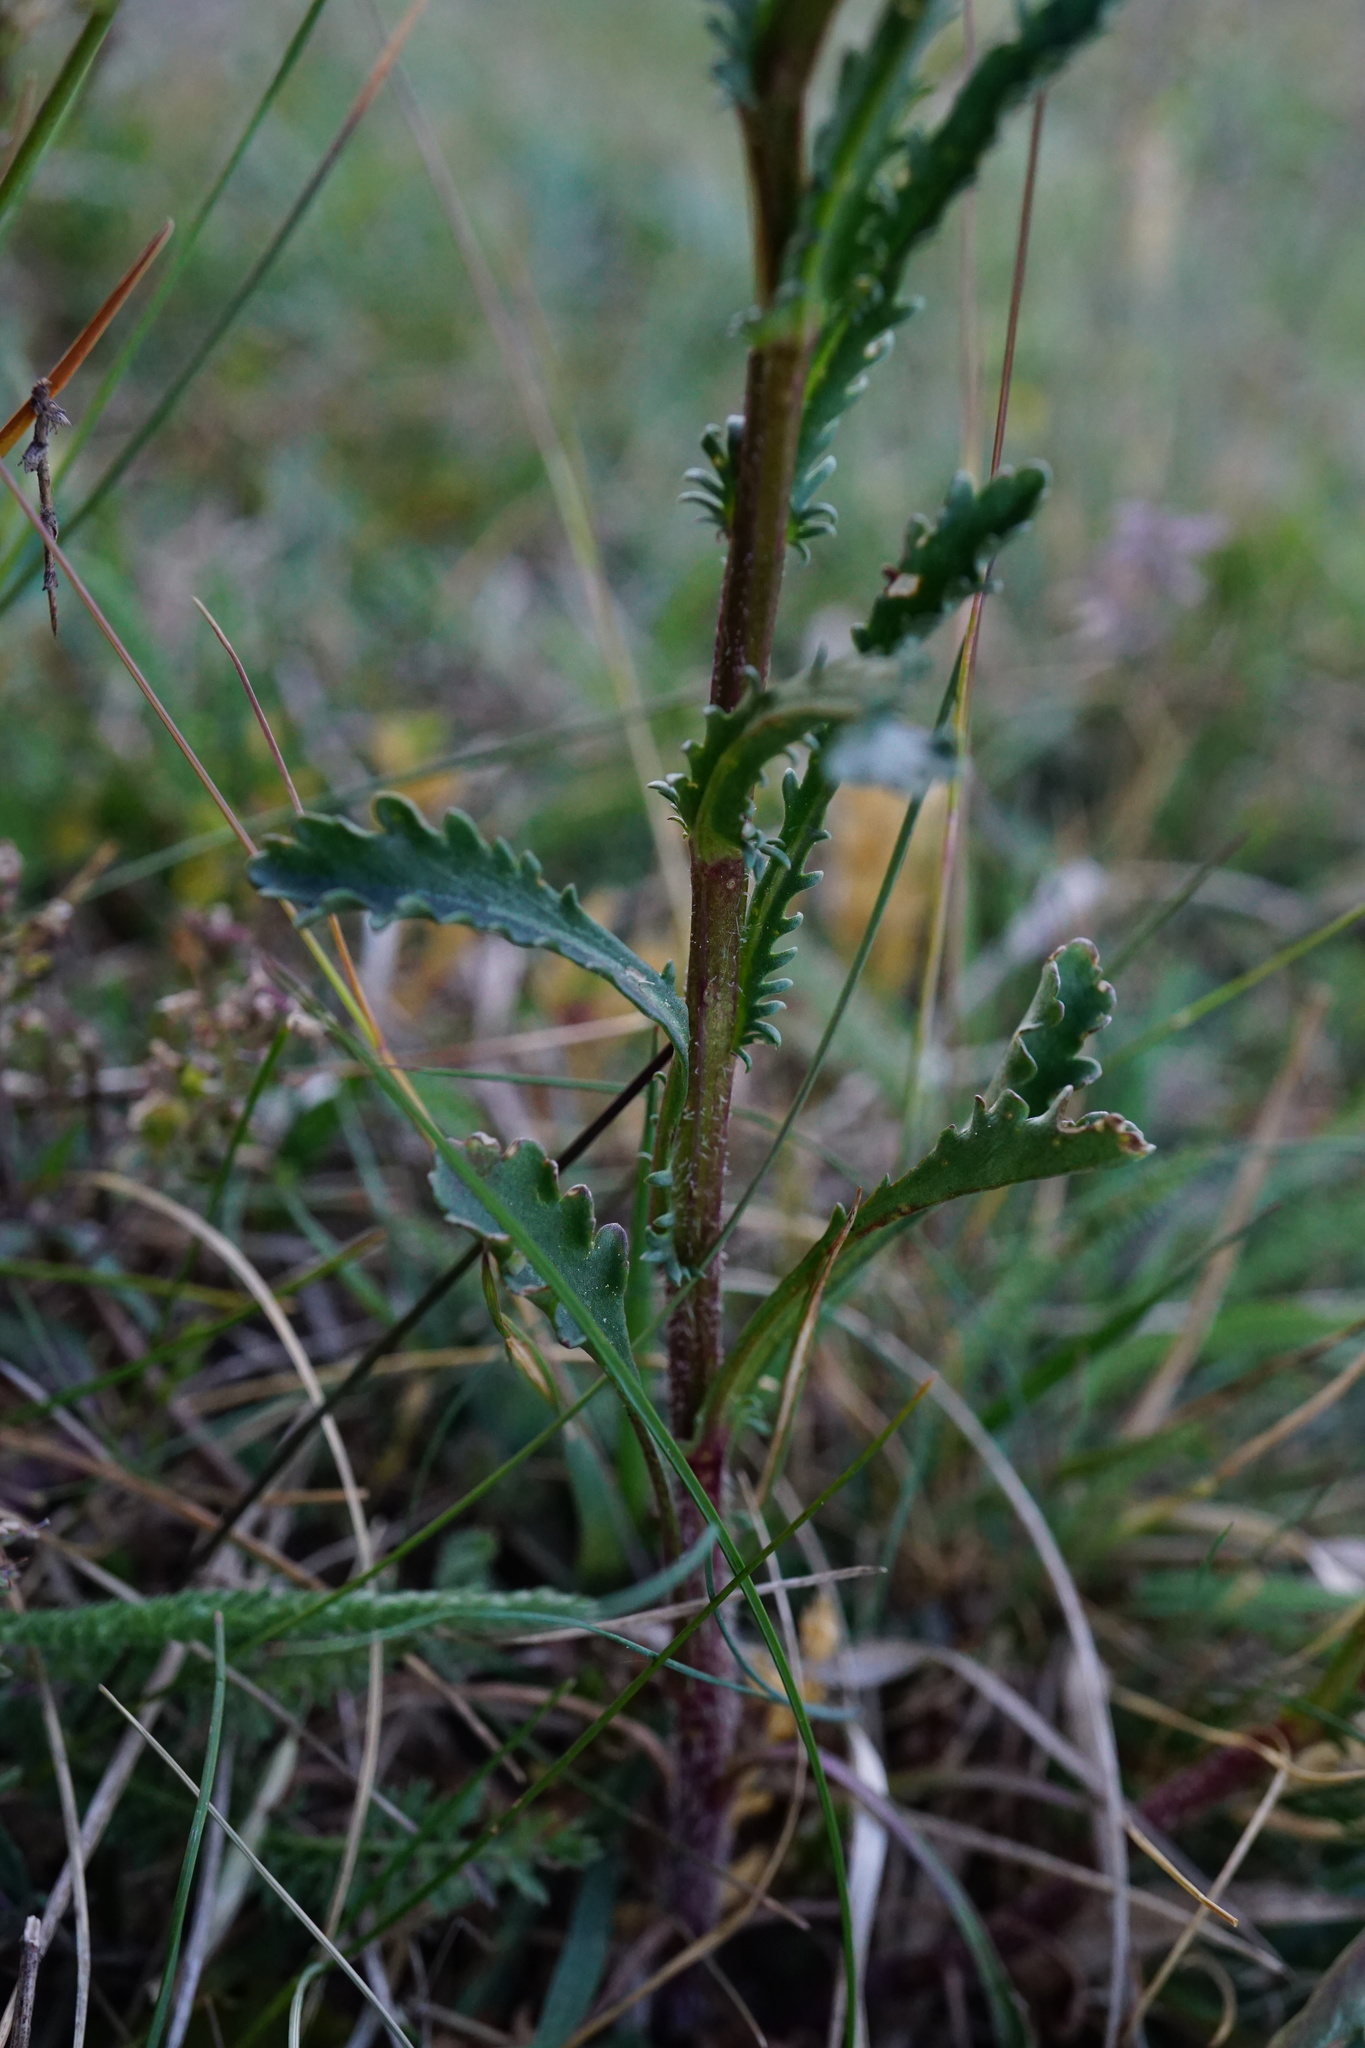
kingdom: Plantae
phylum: Tracheophyta
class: Magnoliopsida
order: Asterales
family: Asteraceae
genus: Leucanthemum
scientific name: Leucanthemum vulgare
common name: Oxeye daisy
